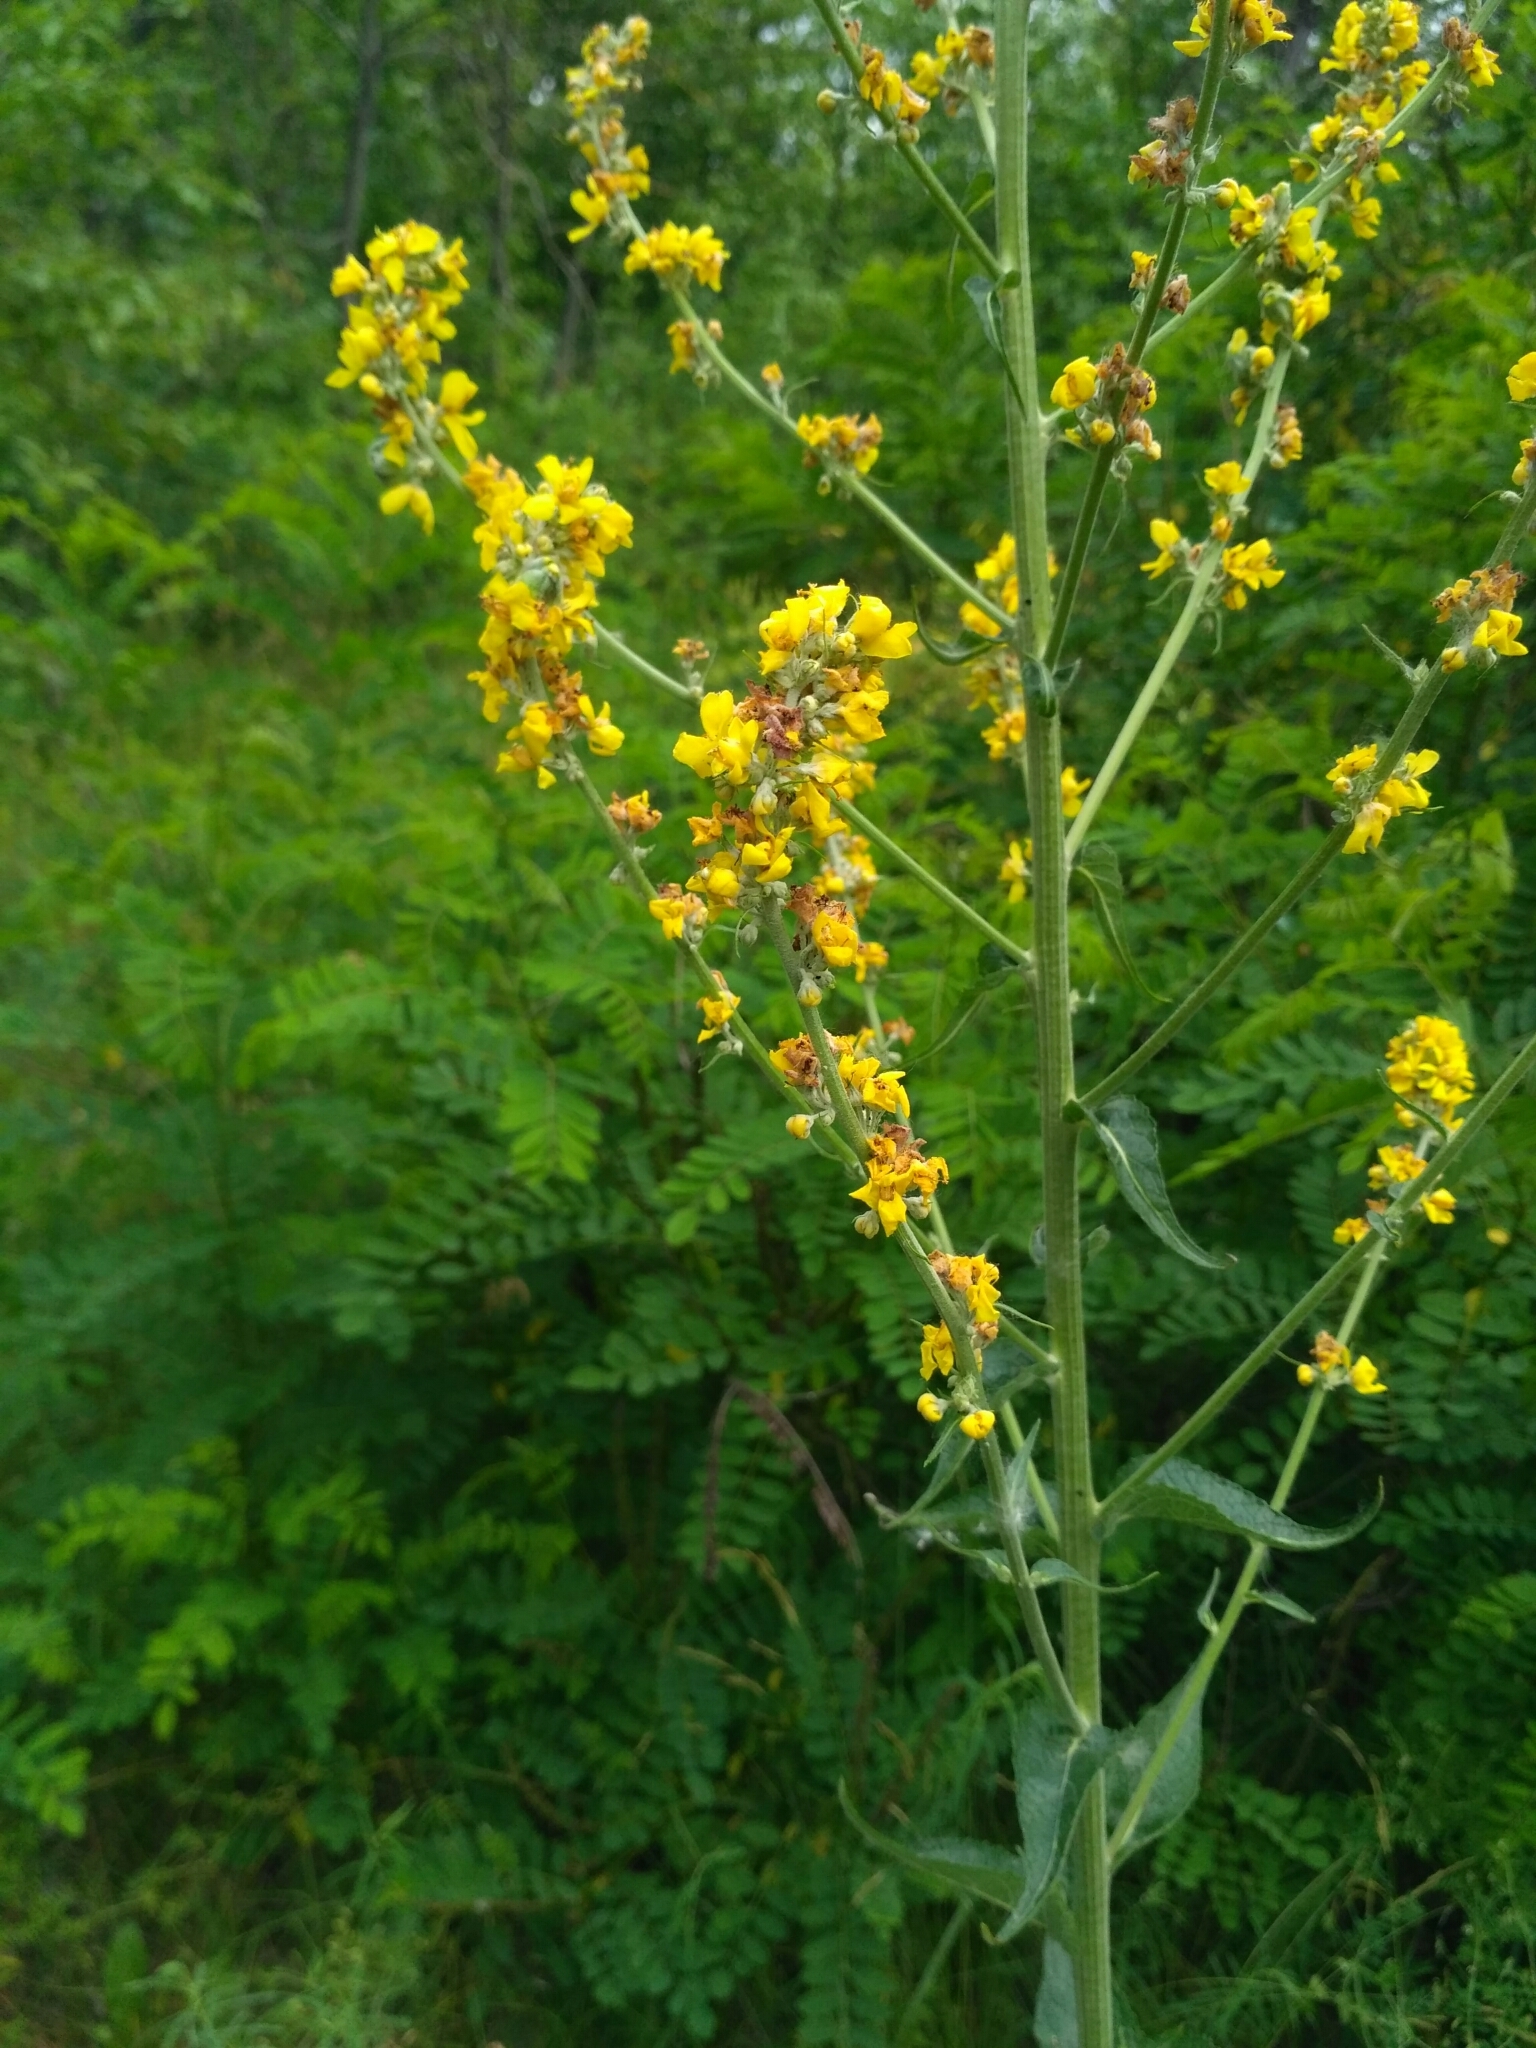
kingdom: Plantae
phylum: Tracheophyta
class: Magnoliopsida
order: Lamiales
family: Scrophulariaceae
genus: Verbascum
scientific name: Verbascum lychnitis
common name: White mullein
